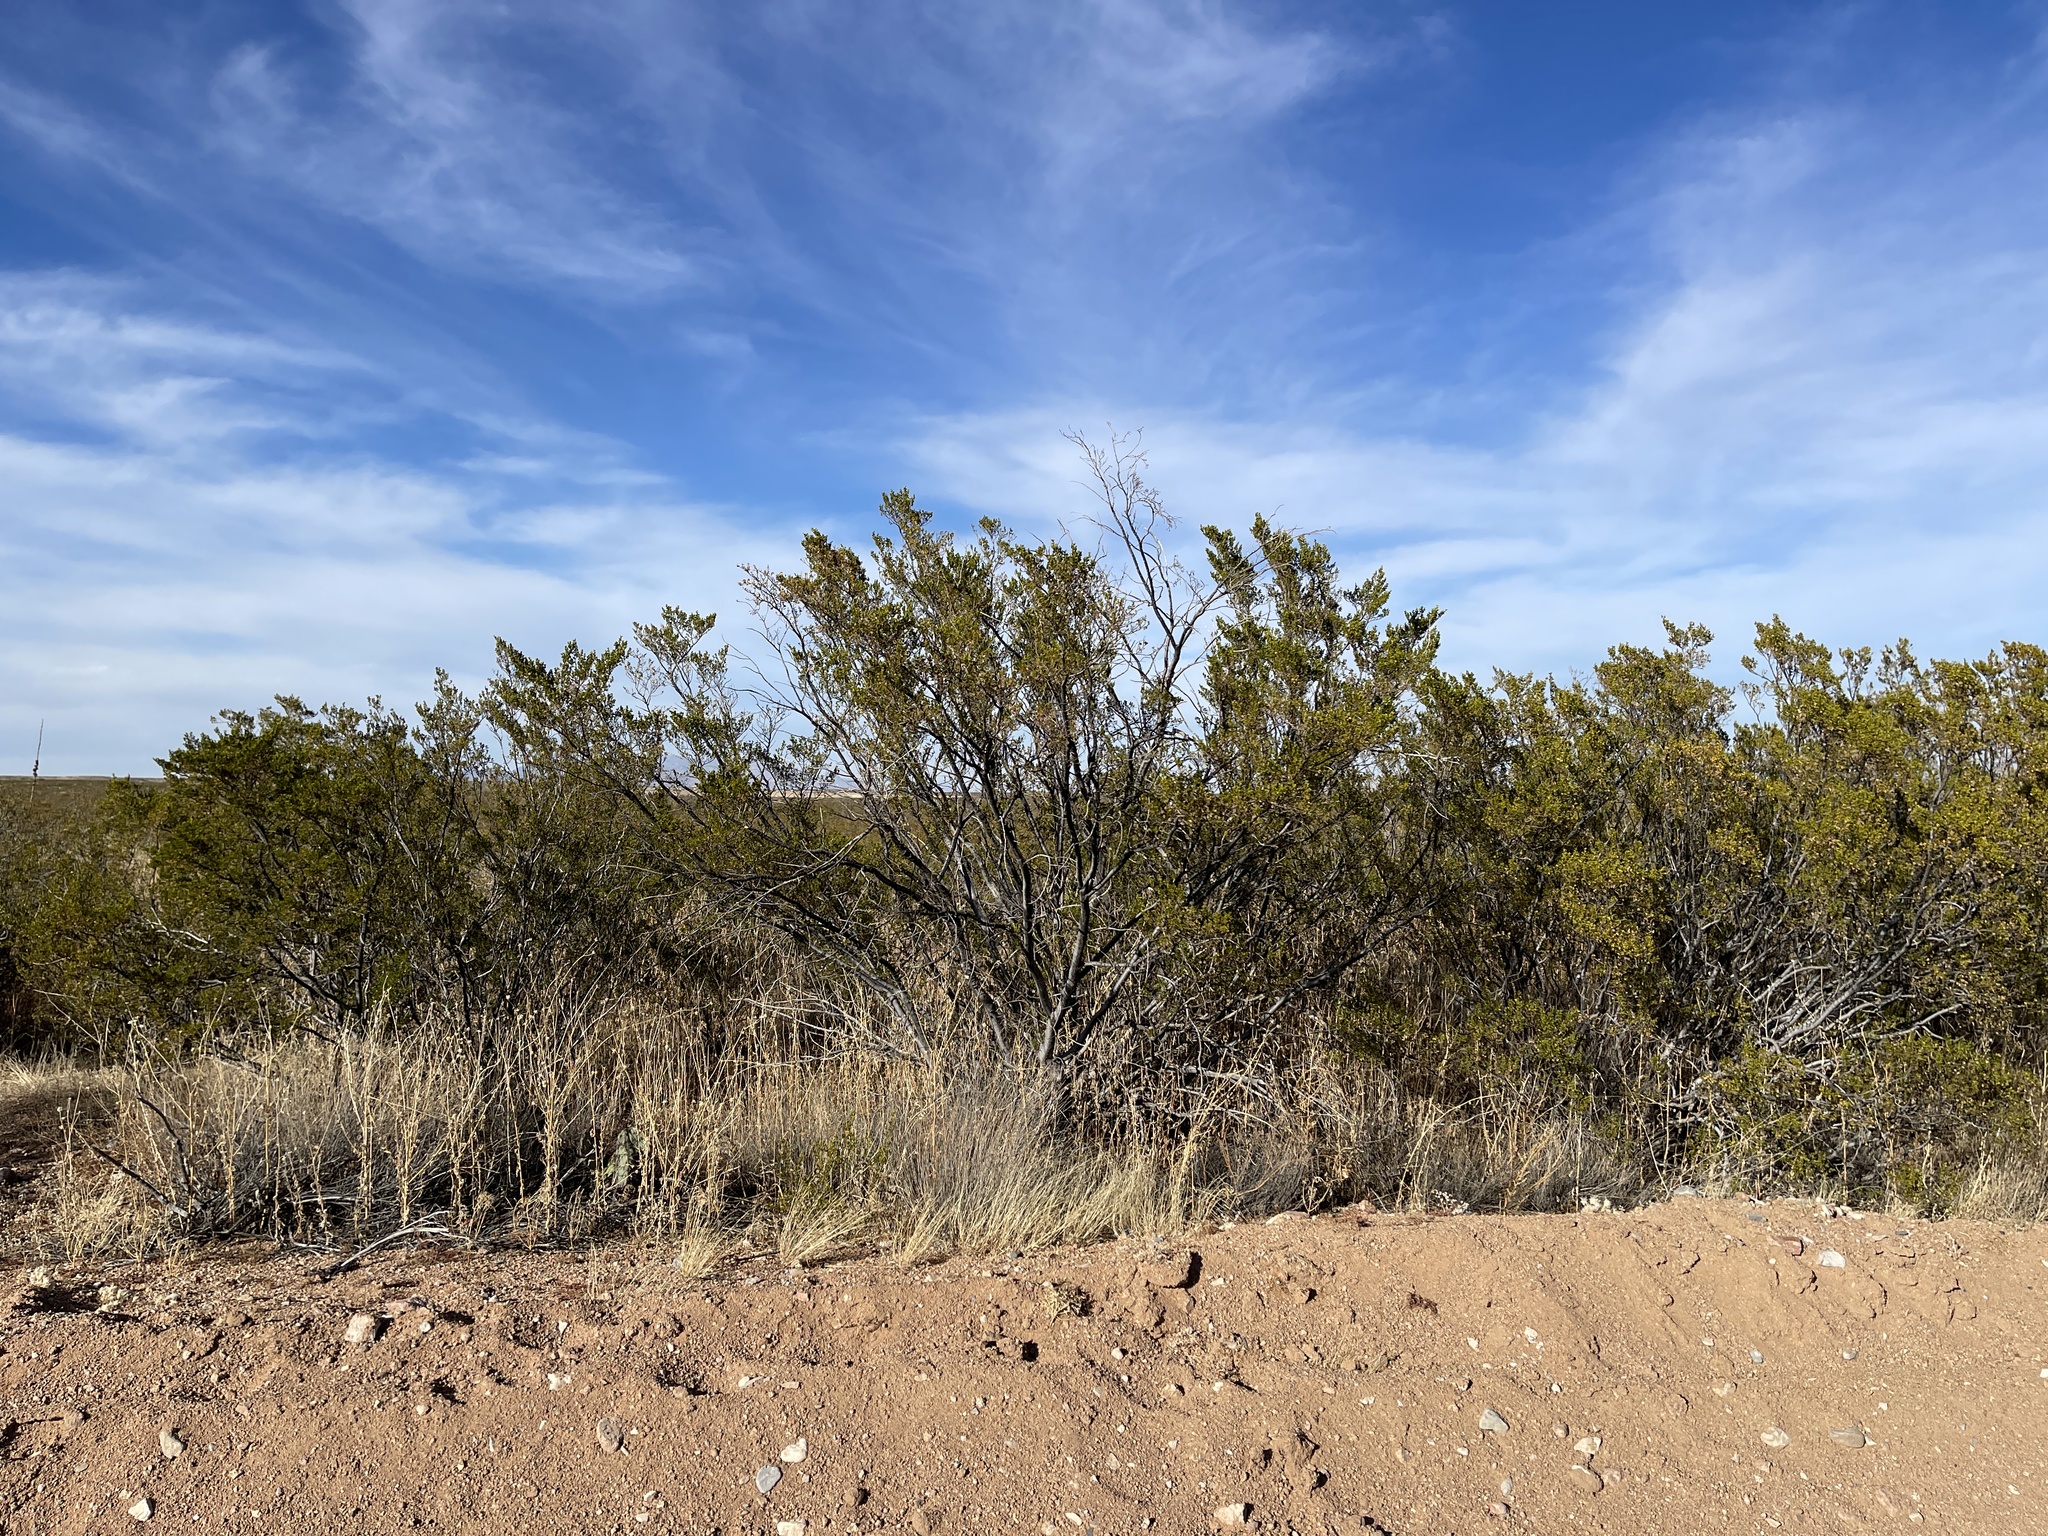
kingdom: Plantae
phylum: Tracheophyta
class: Magnoliopsida
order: Zygophyllales
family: Zygophyllaceae
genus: Larrea
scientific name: Larrea tridentata
